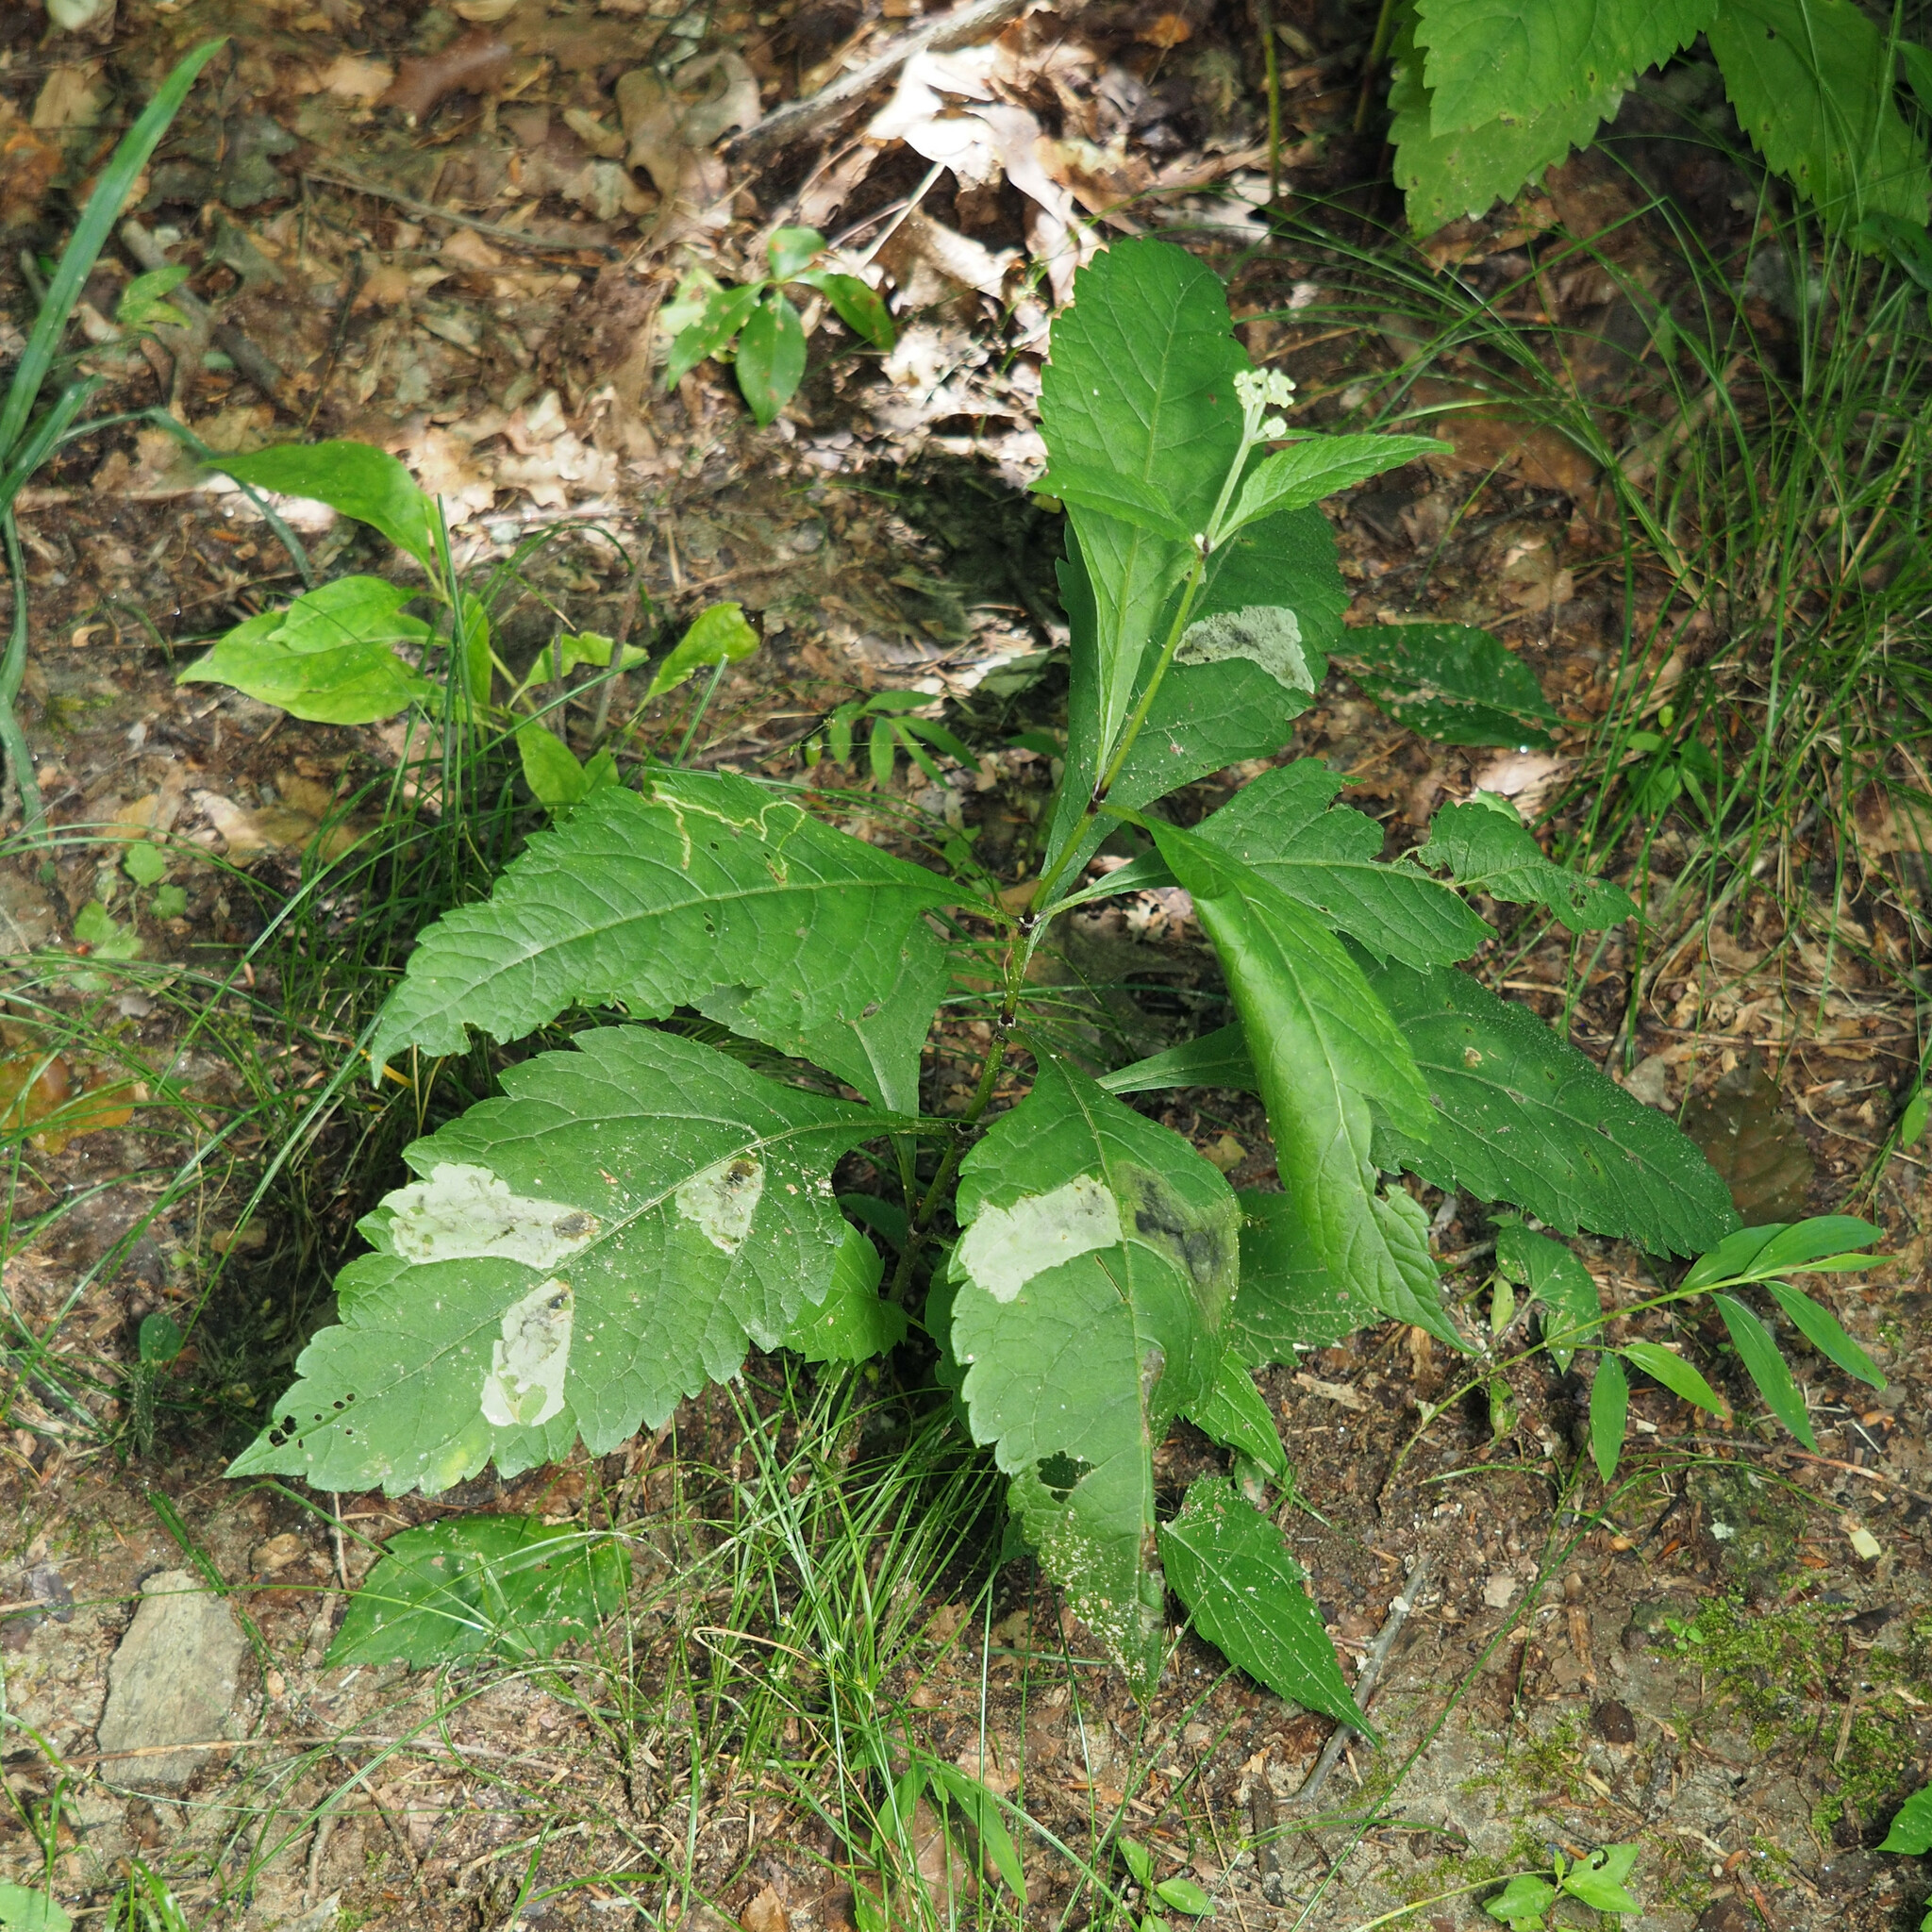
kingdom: Animalia
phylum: Arthropoda
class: Insecta
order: Diptera
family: Agromyzidae
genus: Calycomyza
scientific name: Calycomyza flavinotum
